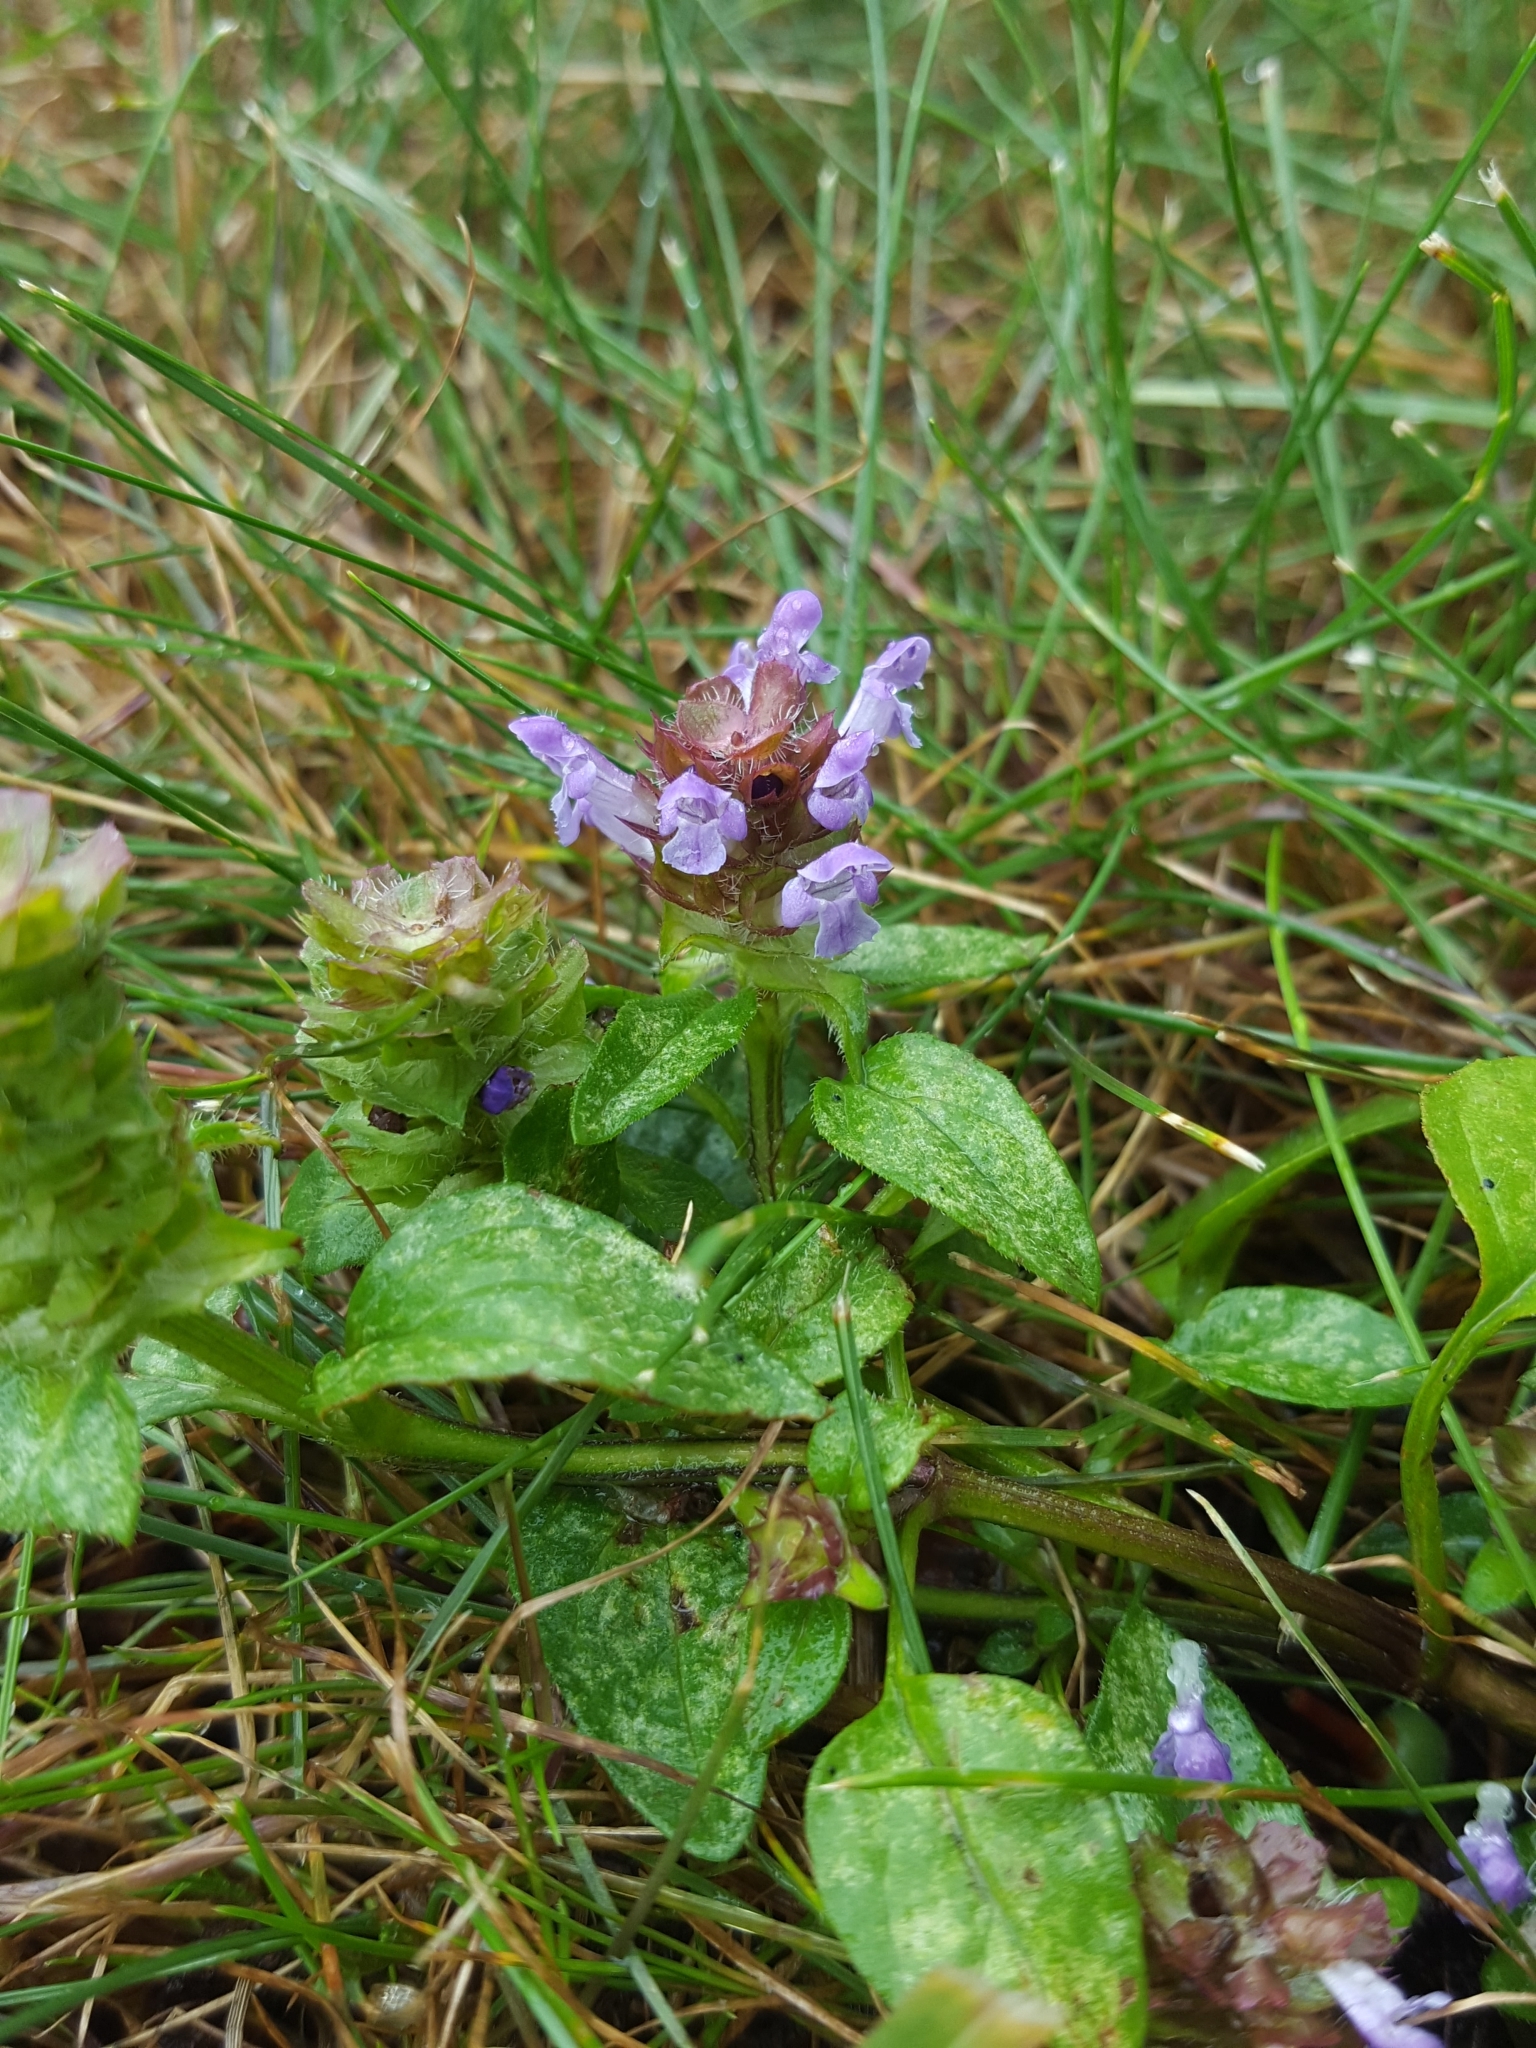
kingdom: Plantae
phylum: Tracheophyta
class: Magnoliopsida
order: Lamiales
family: Lamiaceae
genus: Prunella
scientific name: Prunella vulgaris
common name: Heal-all
